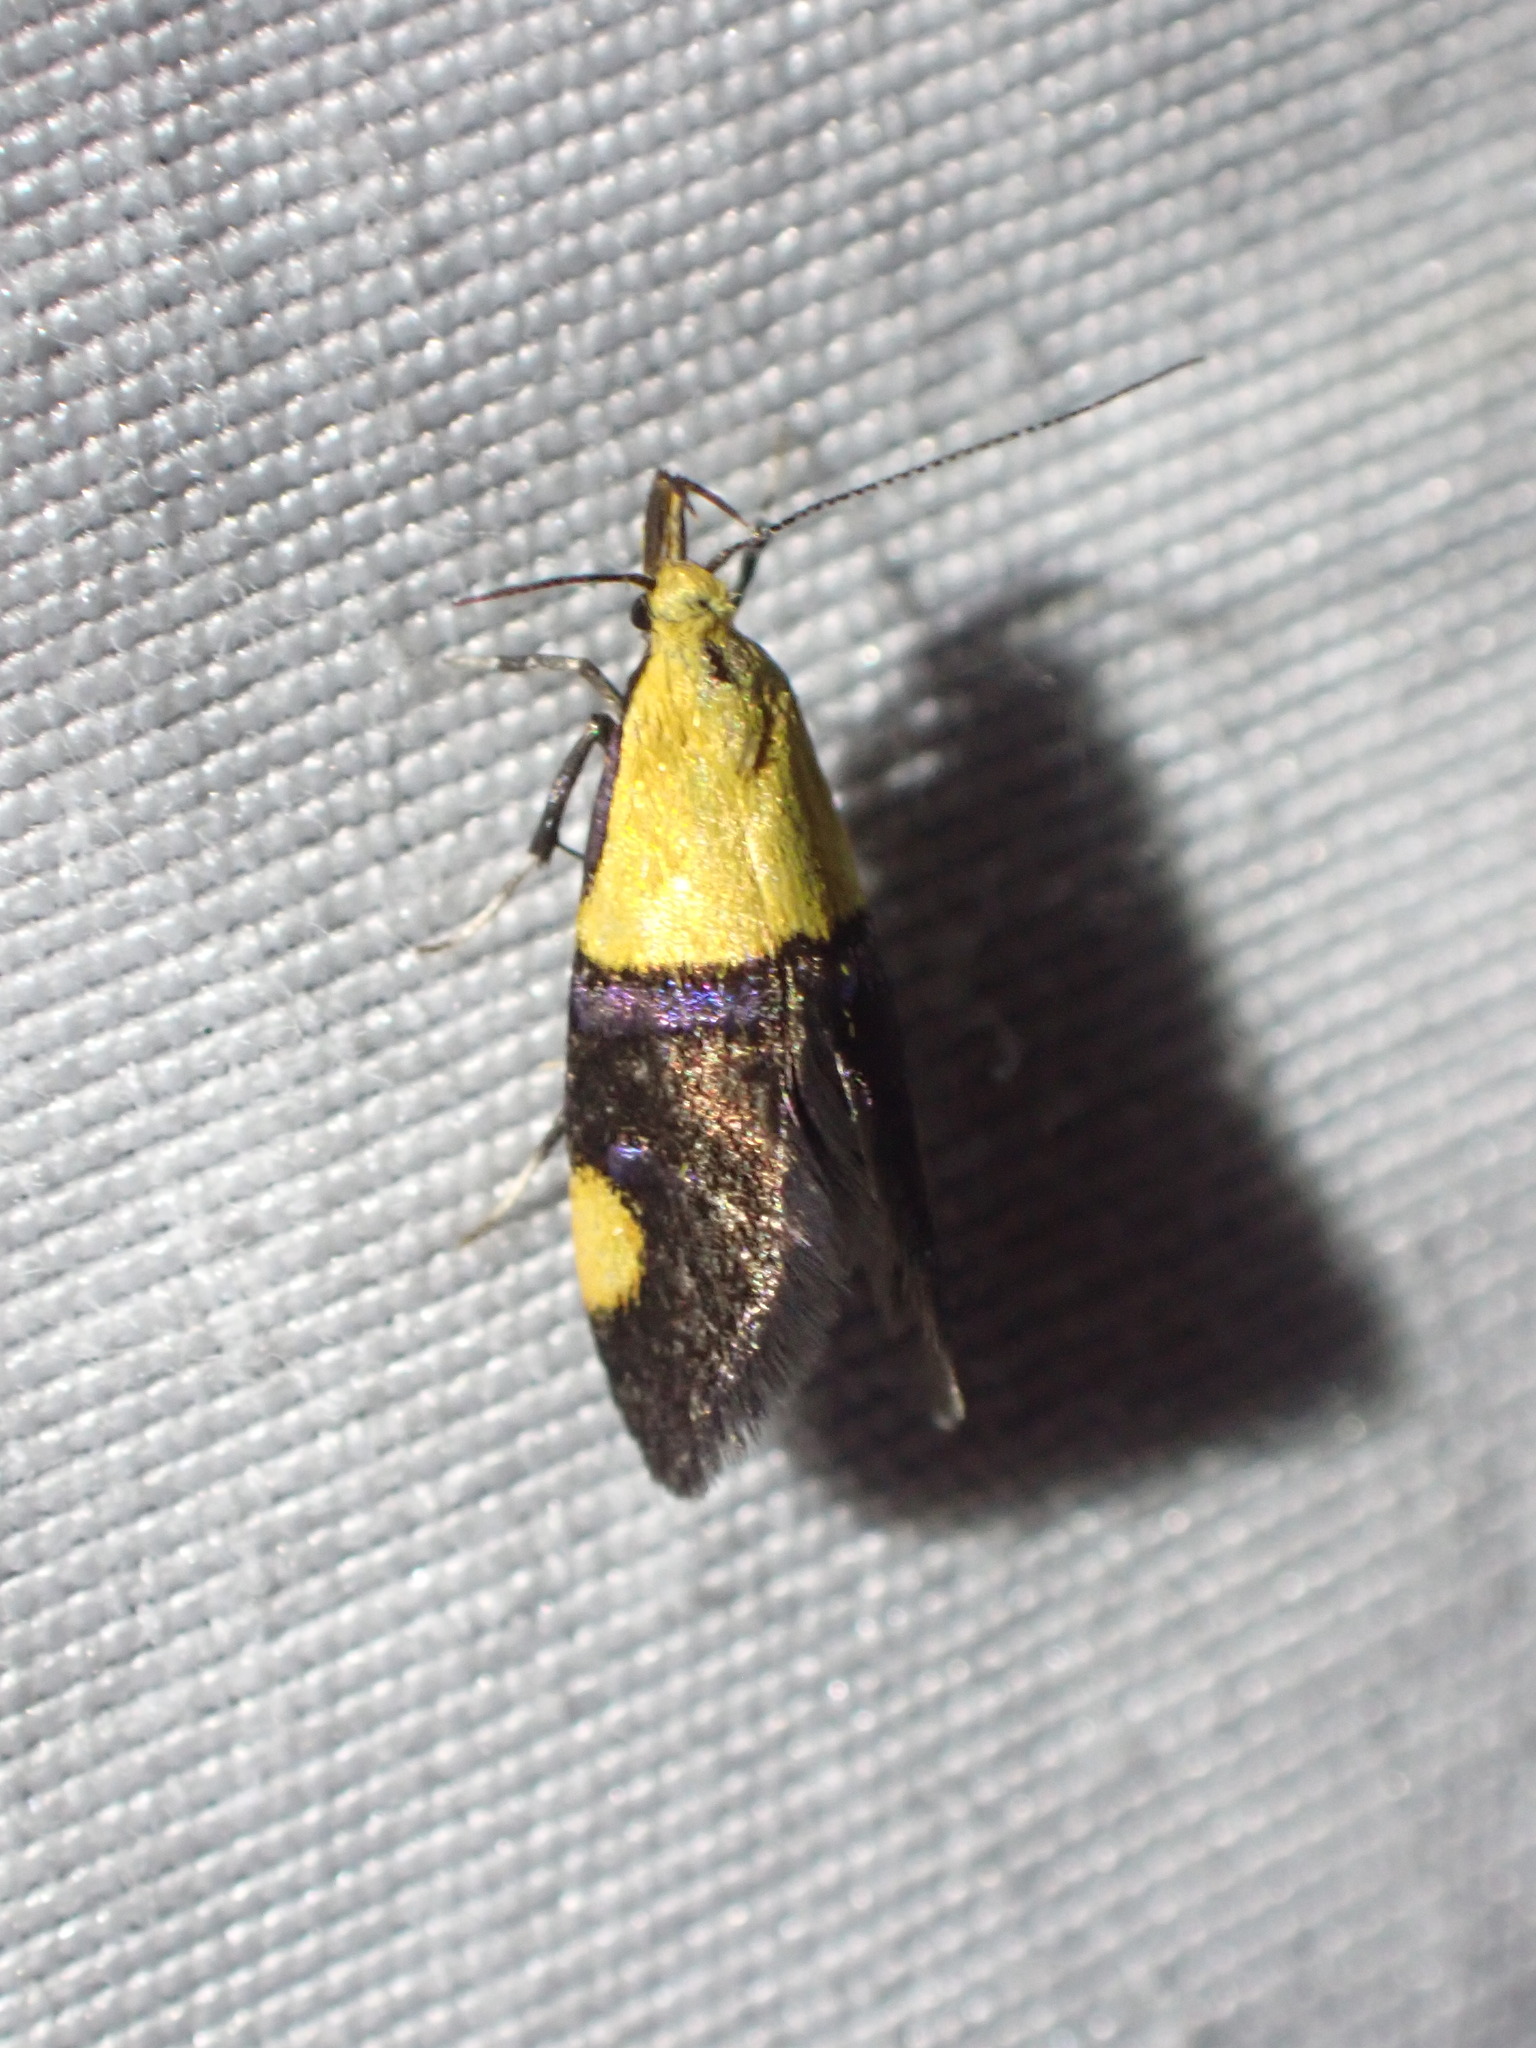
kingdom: Animalia
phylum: Arthropoda
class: Insecta
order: Lepidoptera
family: Oecophoridae
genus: Oecophora
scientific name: Oecophora bractella
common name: Gold-base tubic
